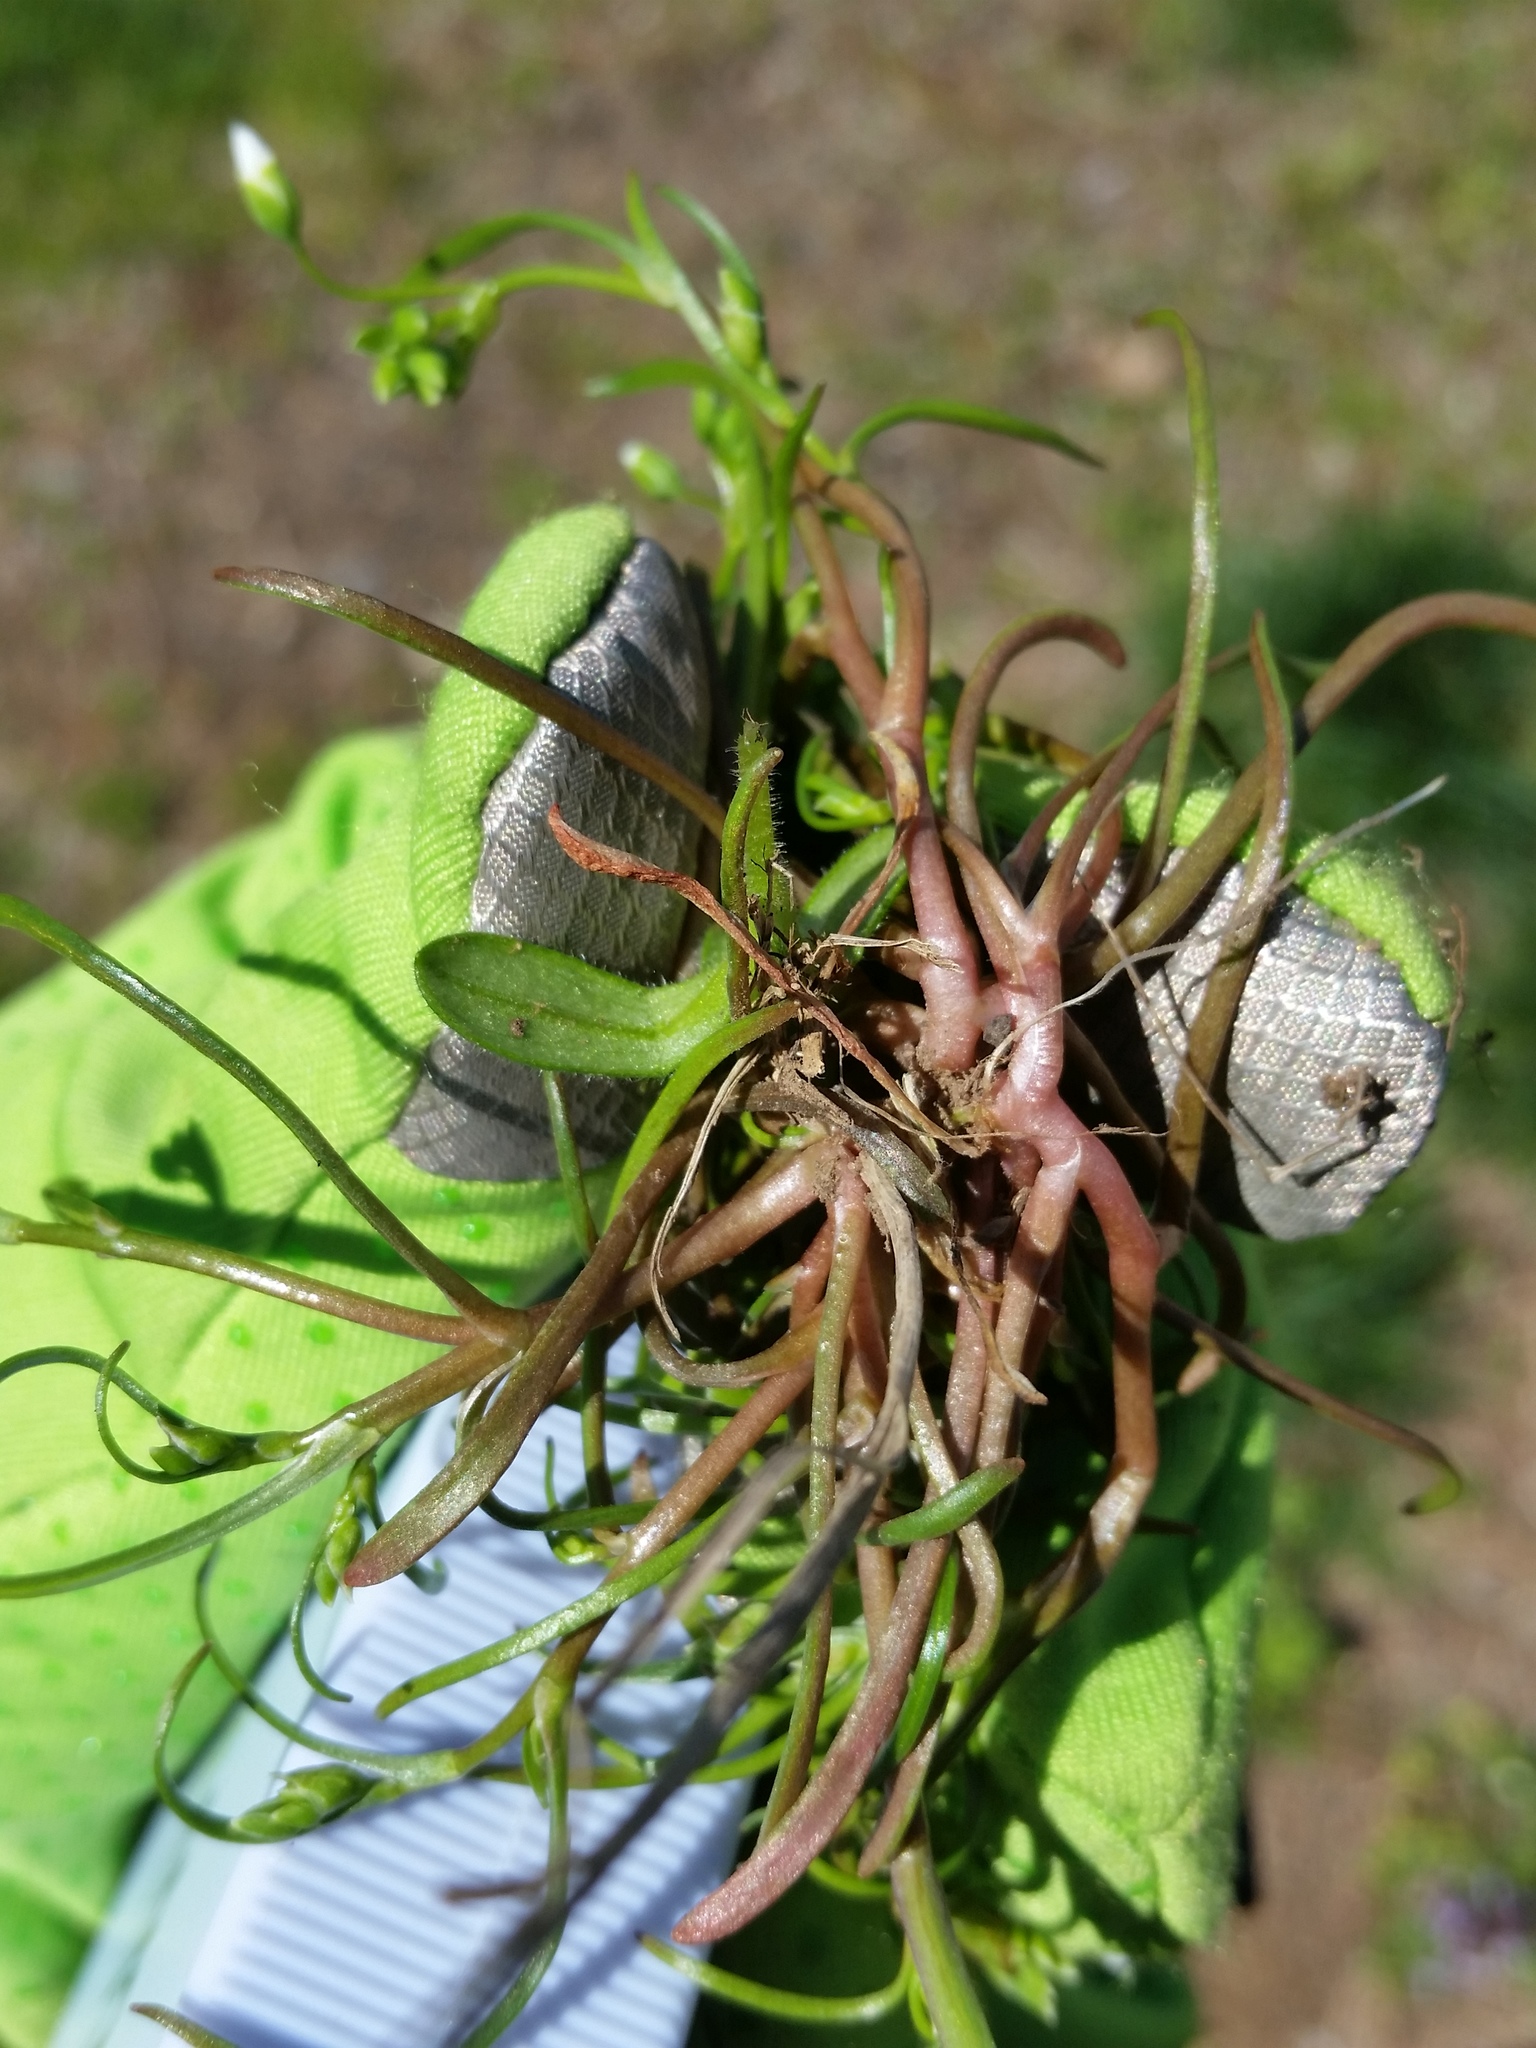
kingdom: Plantae
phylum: Tracheophyta
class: Magnoliopsida
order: Caryophyllales
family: Montiaceae
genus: Montia
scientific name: Montia linearis
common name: Narrow-leaf montia
